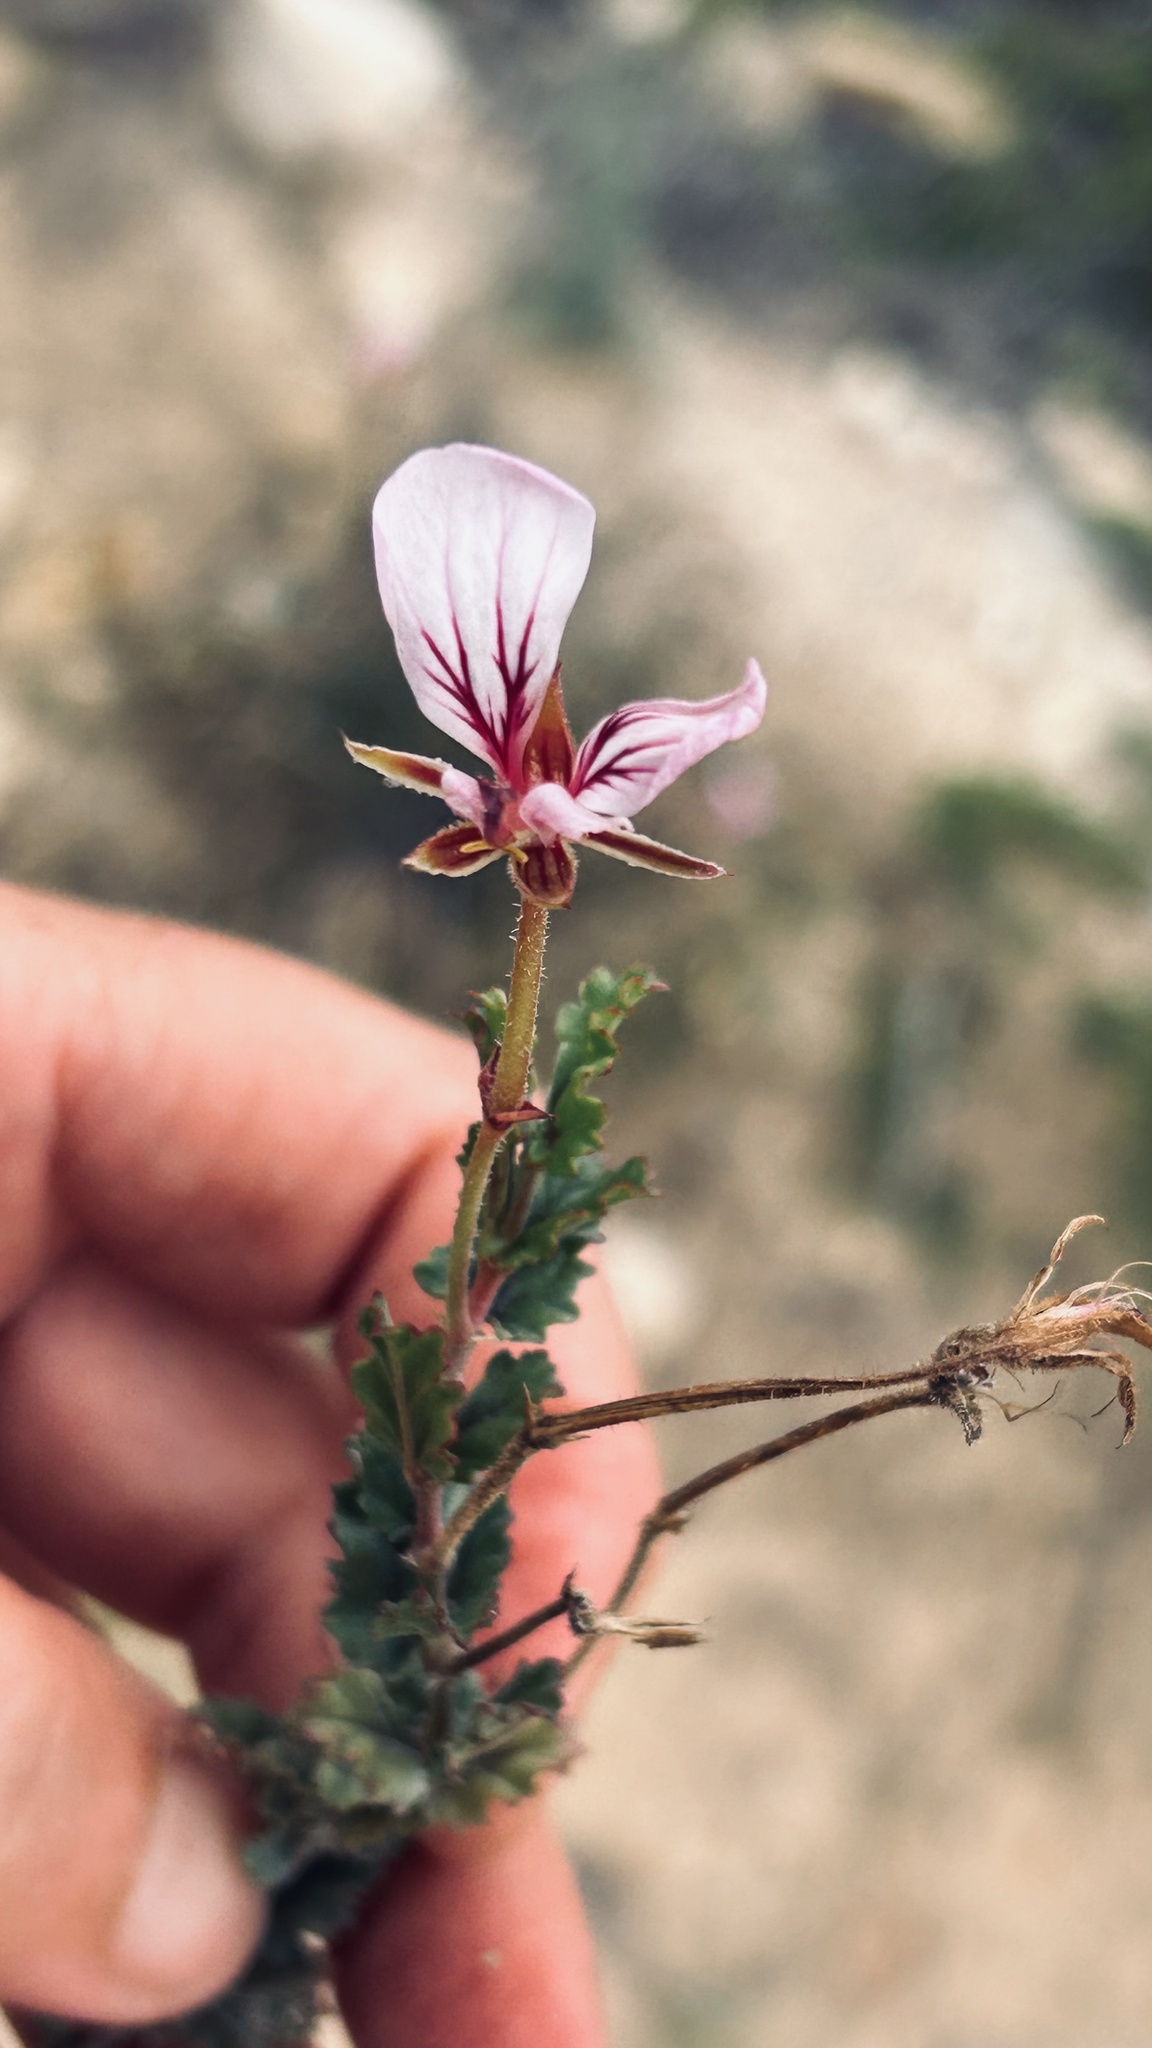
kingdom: Plantae
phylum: Tracheophyta
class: Magnoliopsida
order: Geraniales
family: Geraniaceae
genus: Pelargonium
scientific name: Pelargonium caucalifolium
